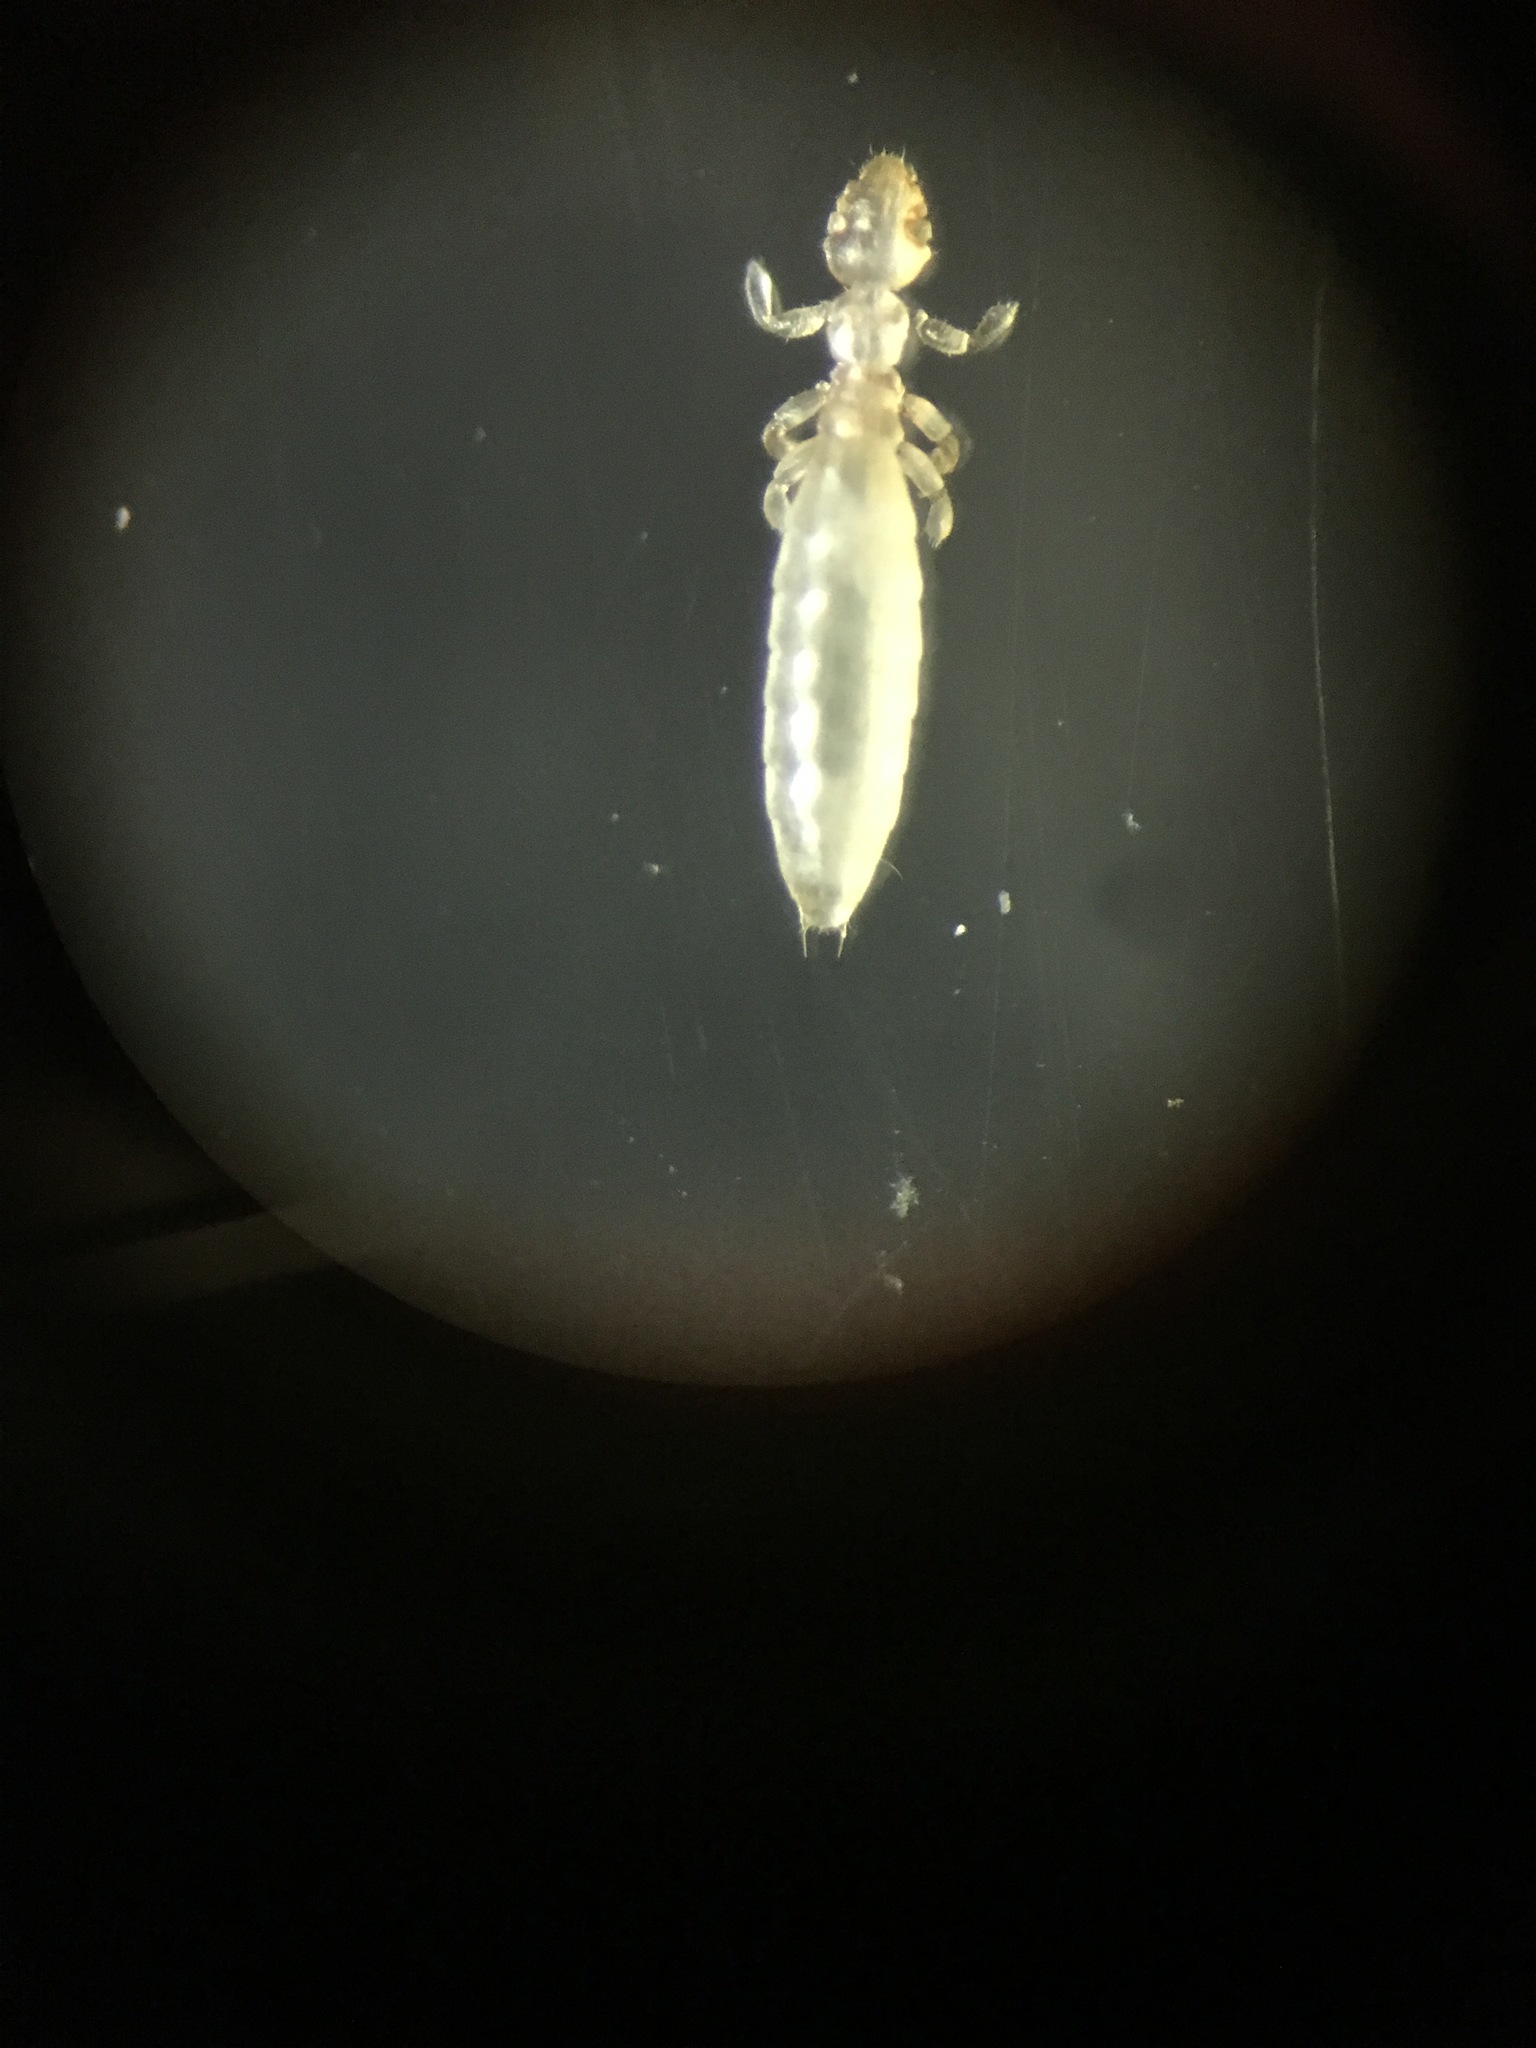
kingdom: Animalia
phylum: Arthropoda
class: Insecta
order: Psocodea
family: Gliricolidae
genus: Gliricola
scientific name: Gliricola porcelli
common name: Louse
